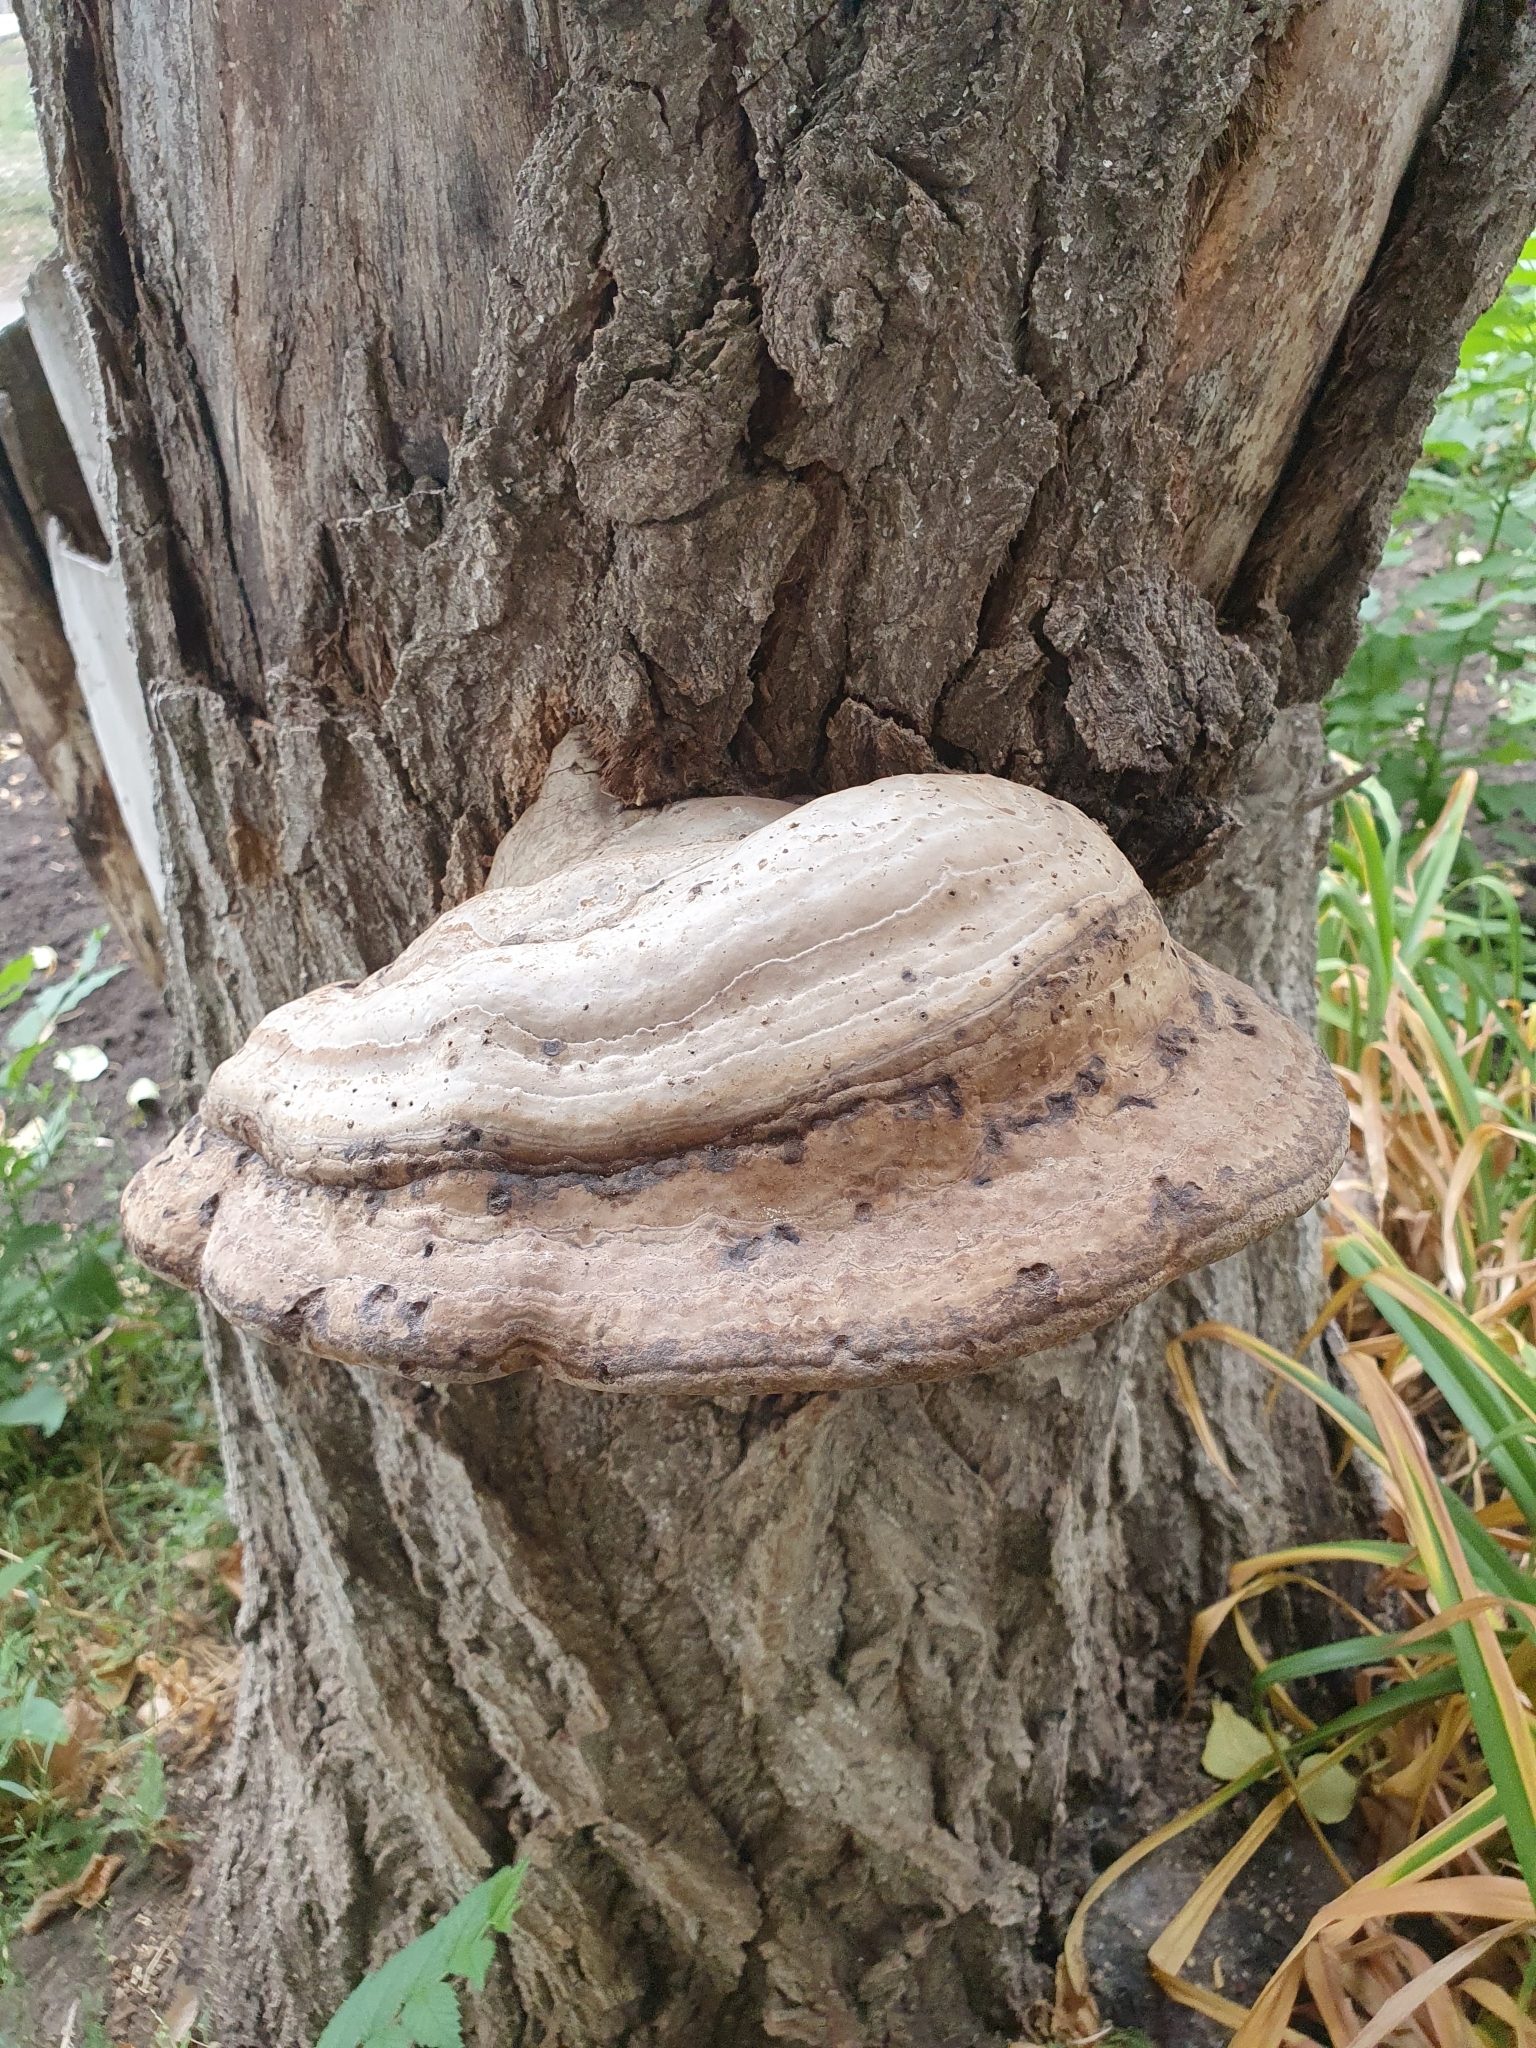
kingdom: Fungi
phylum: Basidiomycota
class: Agaricomycetes
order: Polyporales
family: Polyporaceae
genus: Fomes
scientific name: Fomes fomentarius
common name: Hoof fungus
